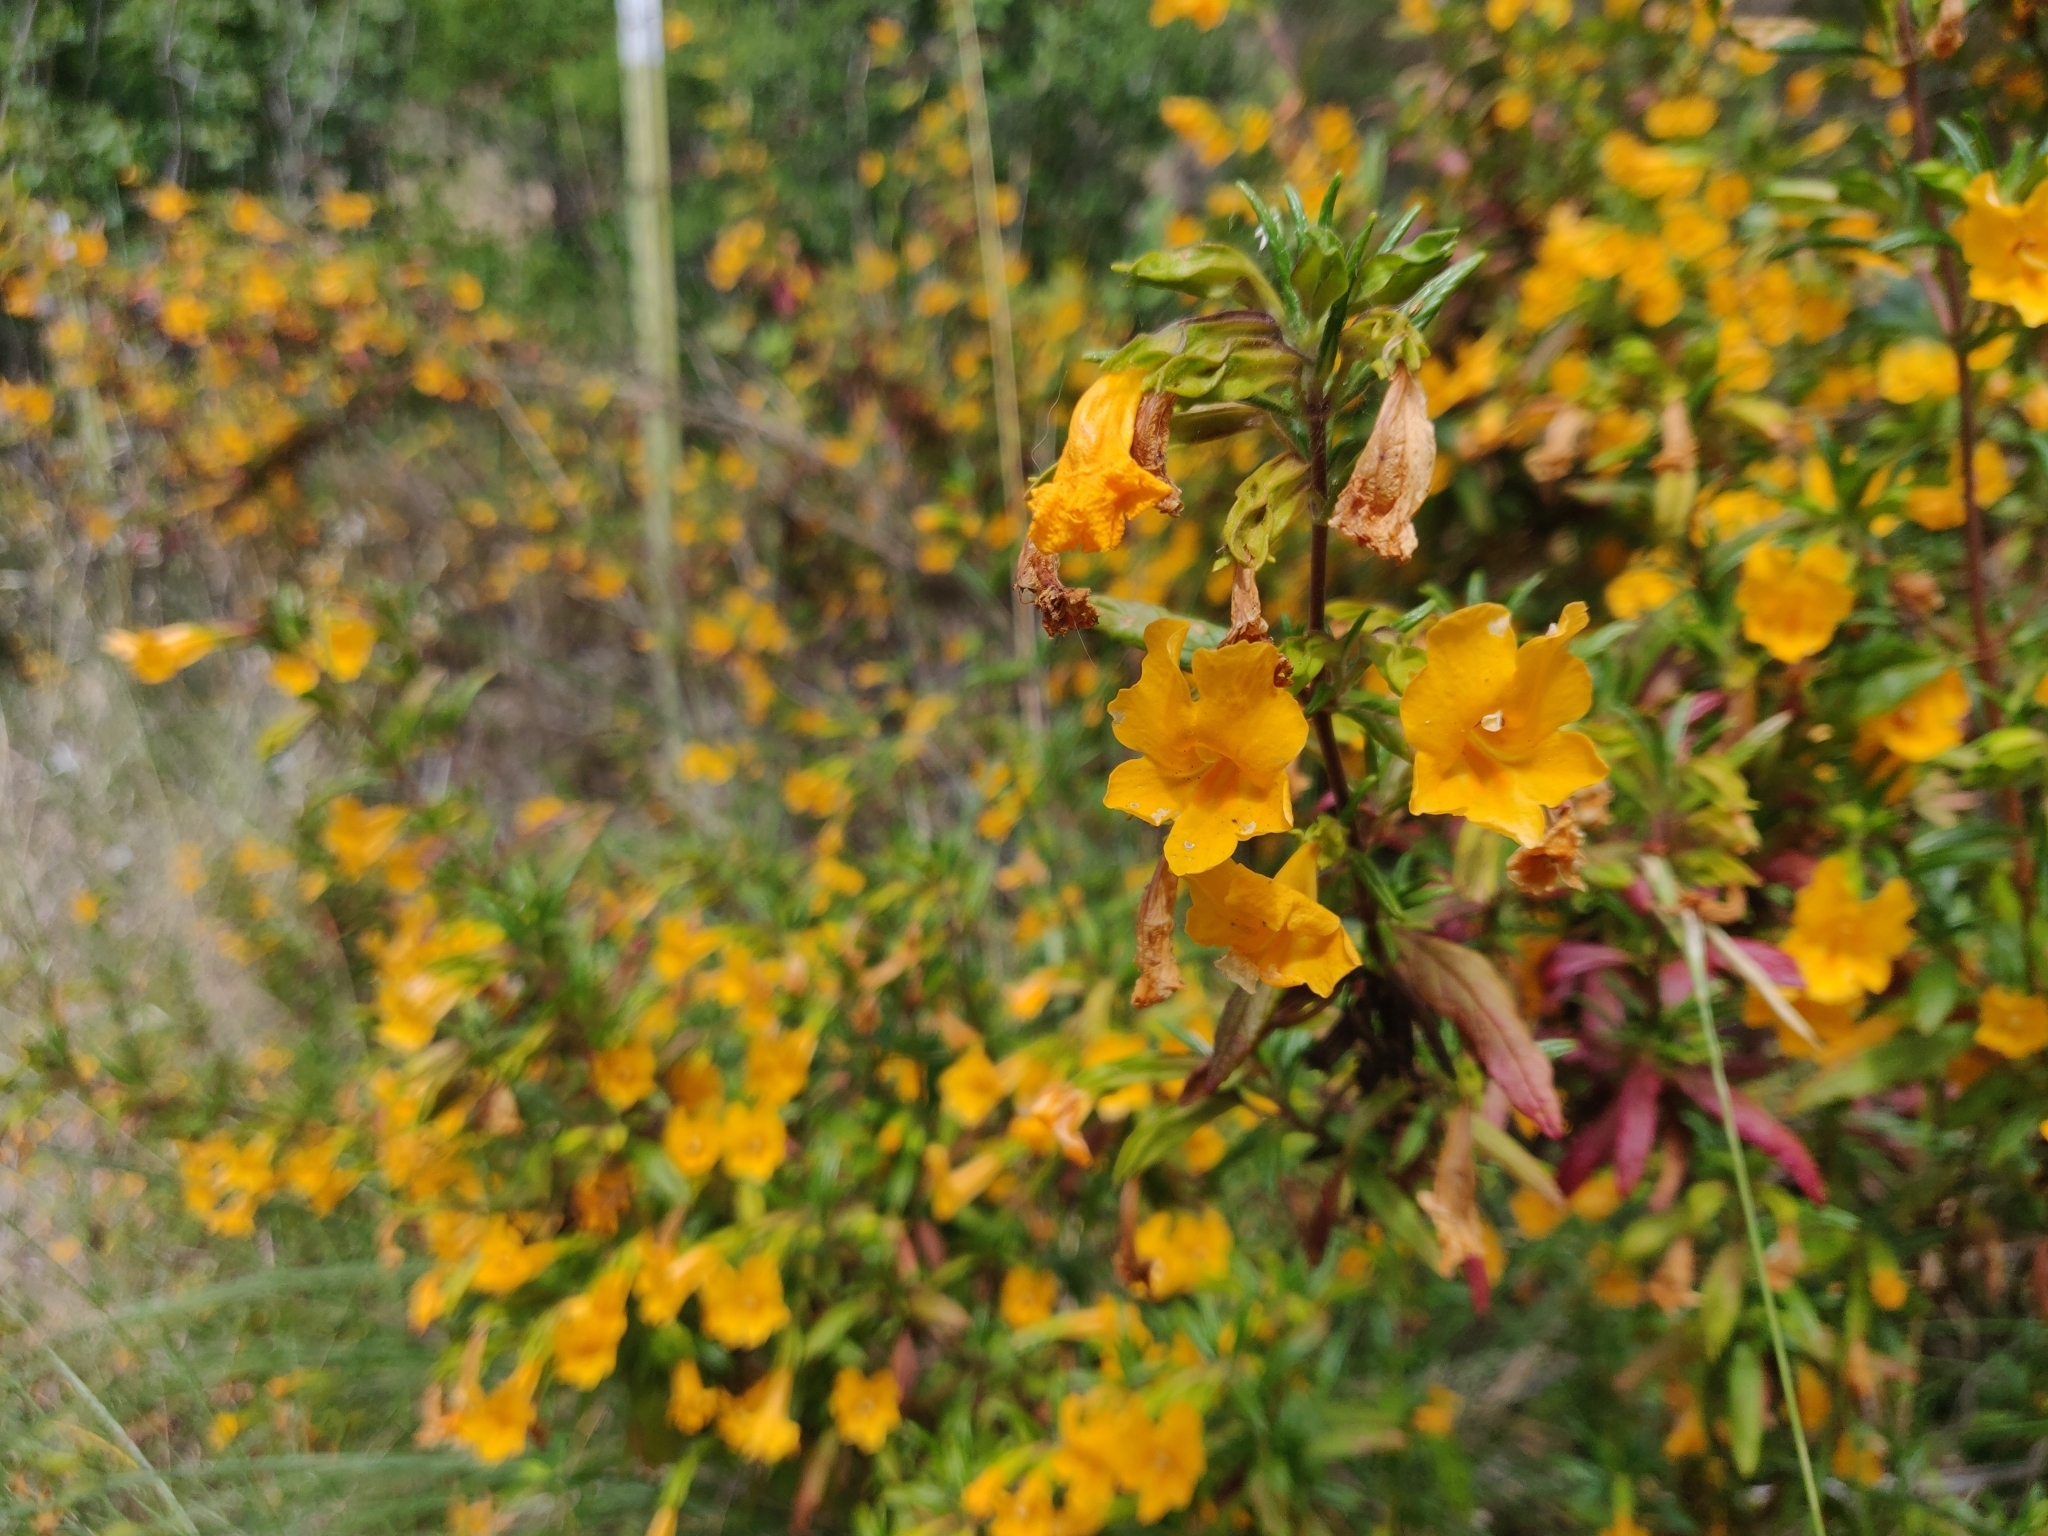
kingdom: Plantae
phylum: Tracheophyta
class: Magnoliopsida
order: Lamiales
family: Phrymaceae
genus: Diplacus
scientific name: Diplacus aurantiacus
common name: Bush monkey-flower
